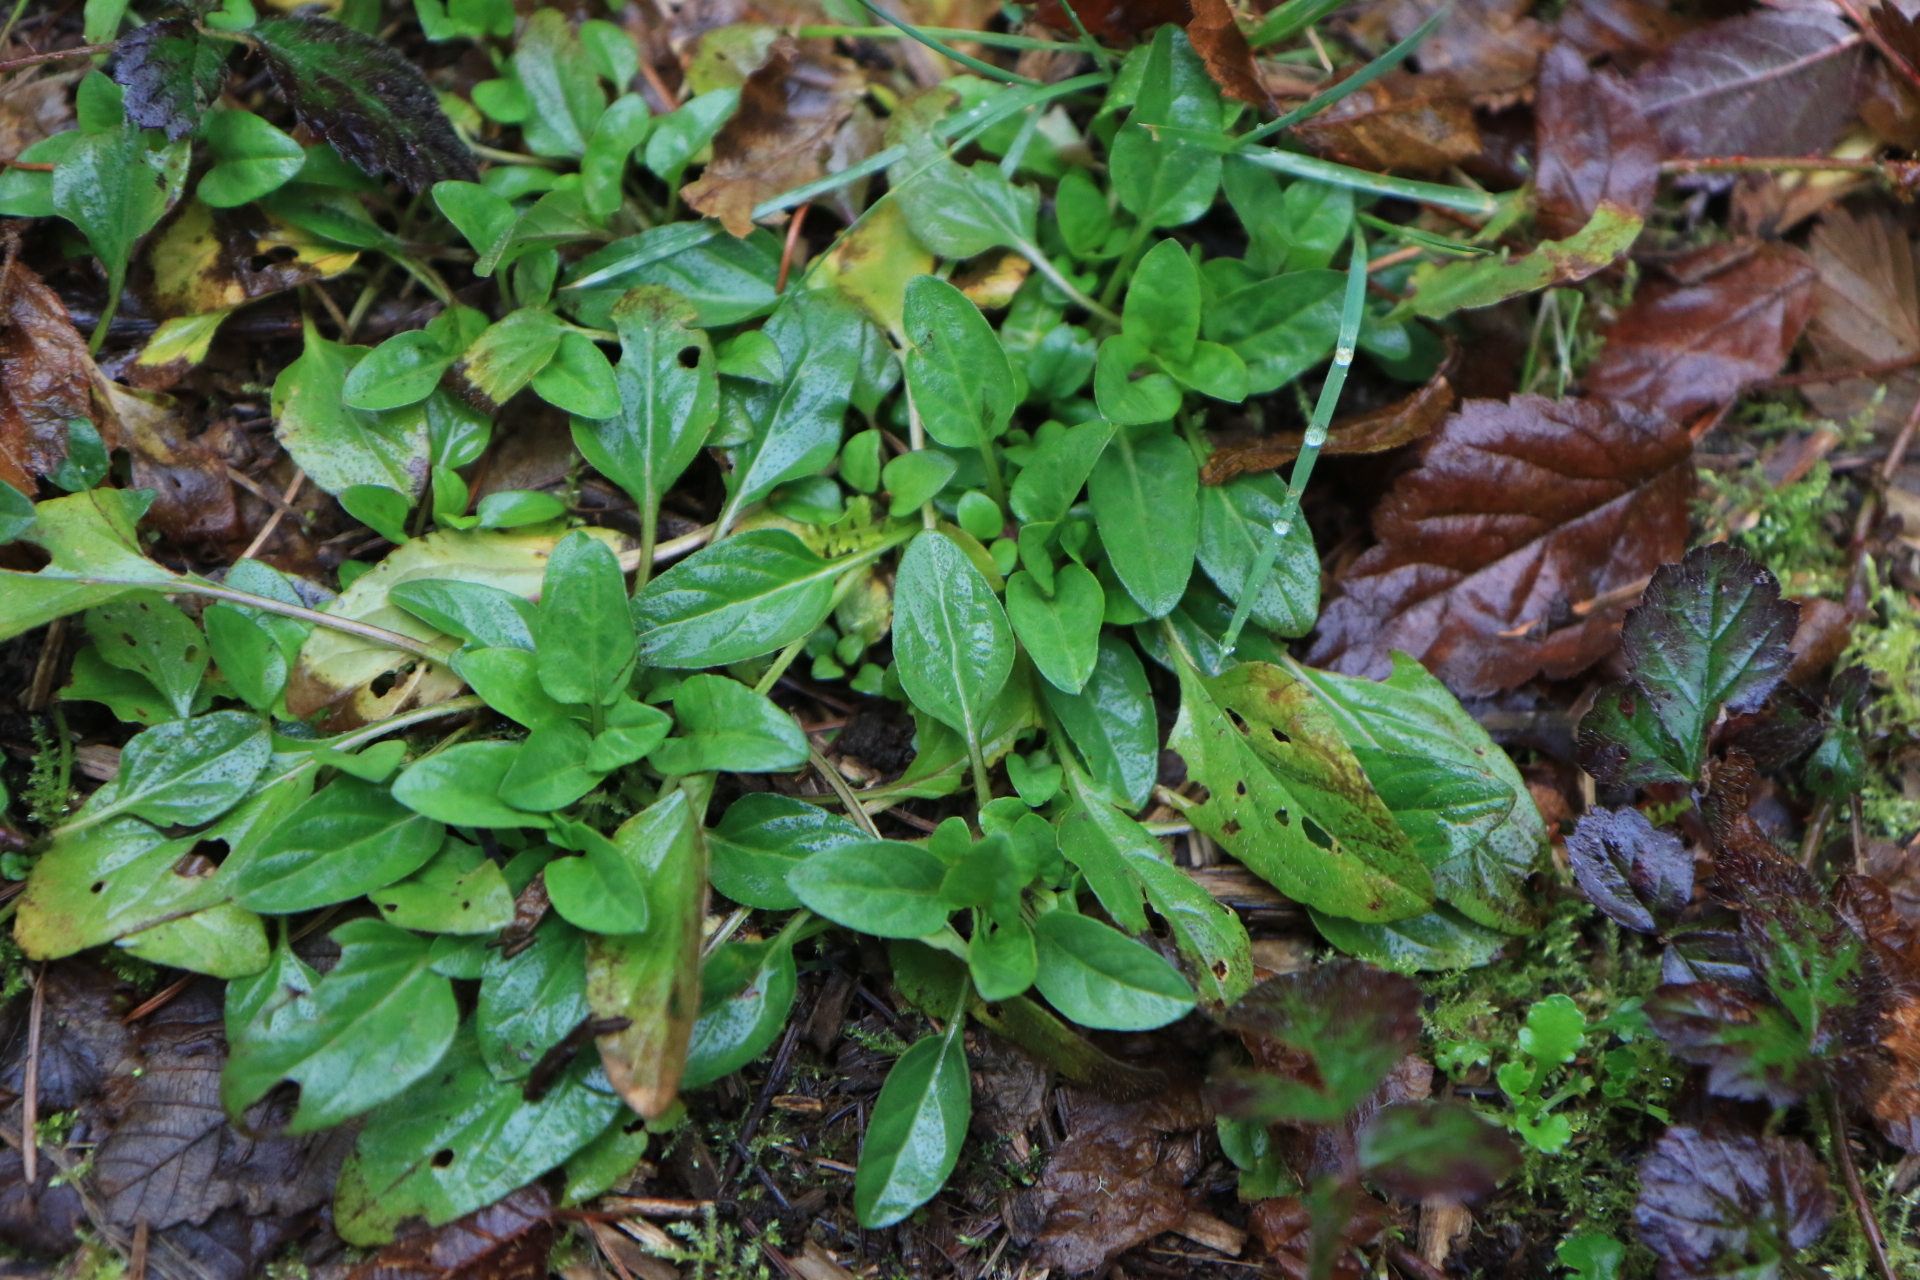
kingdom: Plantae
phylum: Tracheophyta
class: Magnoliopsida
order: Lamiales
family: Lamiaceae
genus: Prunella
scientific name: Prunella vulgaris
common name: Heal-all
